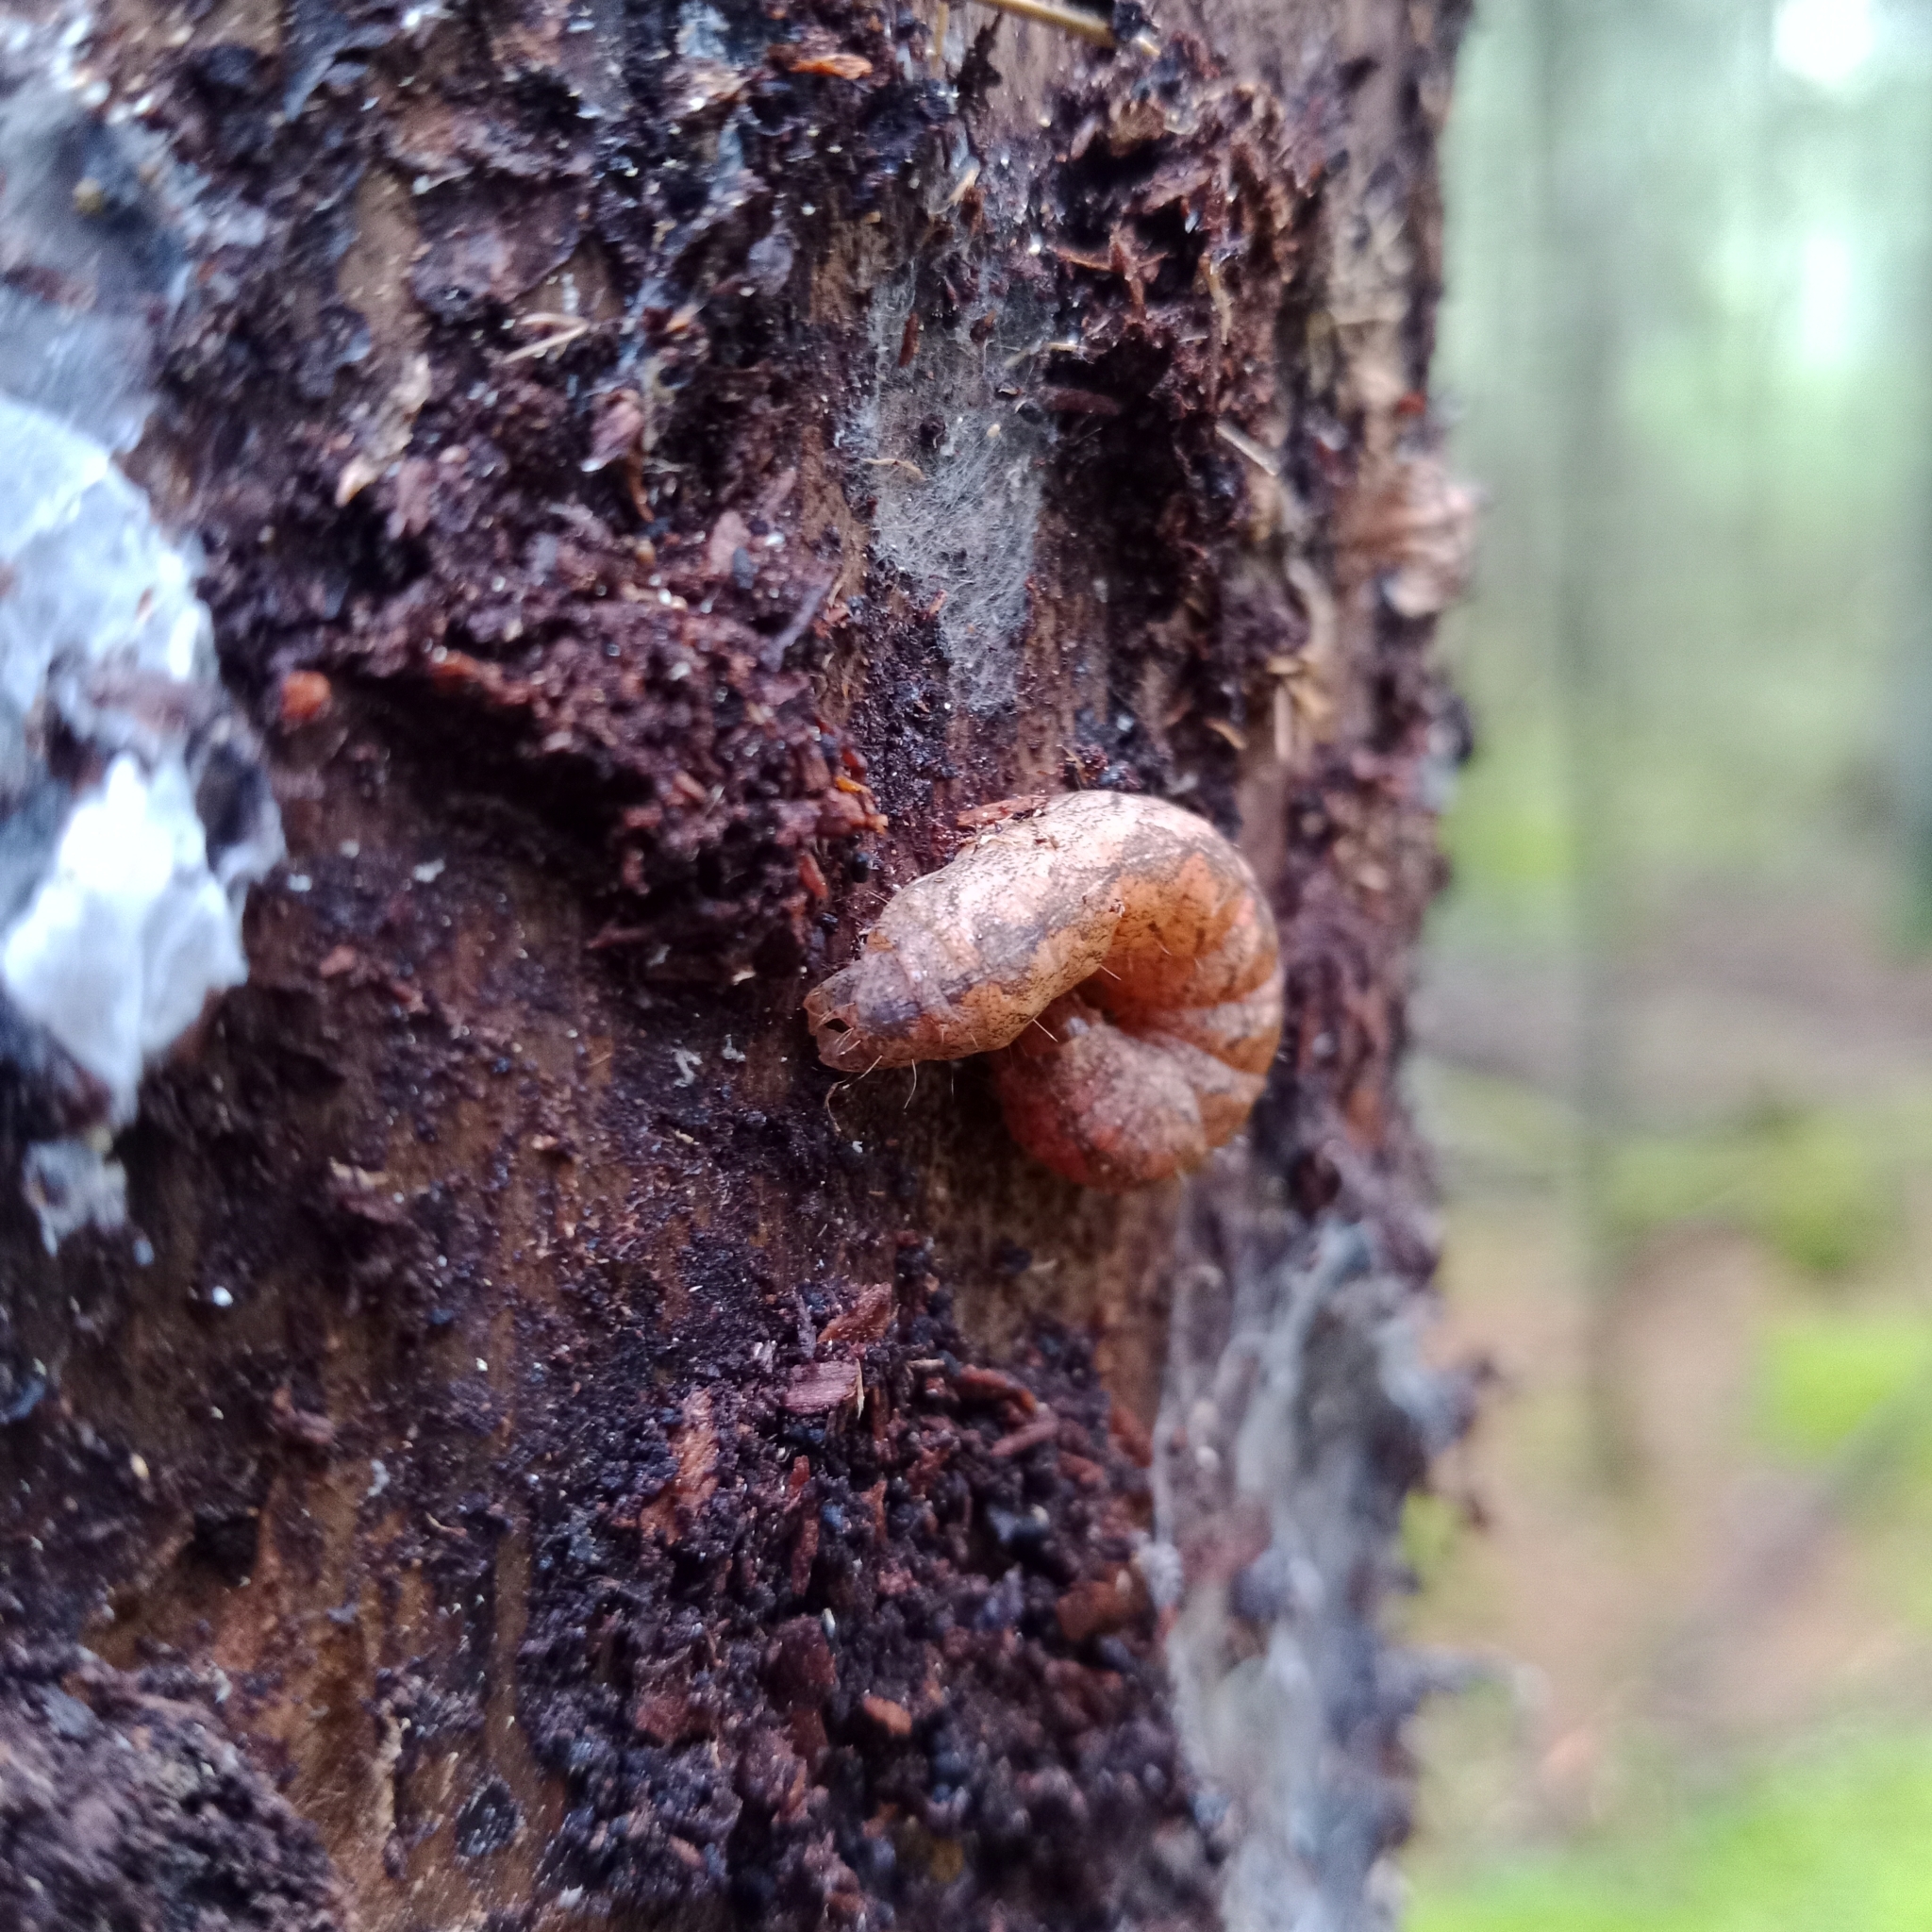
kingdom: Animalia
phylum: Arthropoda
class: Insecta
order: Lepidoptera
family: Noctuidae
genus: Polia
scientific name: Polia nebulosa
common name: Grey arches
